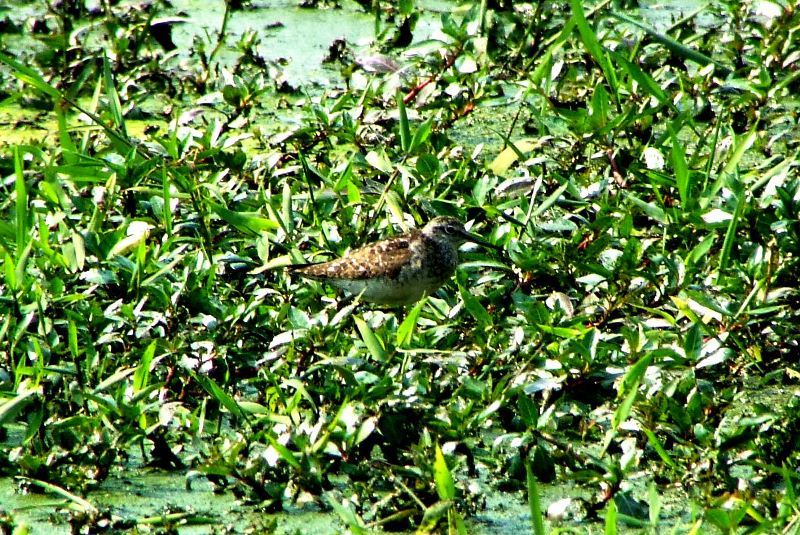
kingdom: Animalia
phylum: Chordata
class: Aves
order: Charadriiformes
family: Scolopacidae
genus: Tringa
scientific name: Tringa glareola
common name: Wood sandpiper
